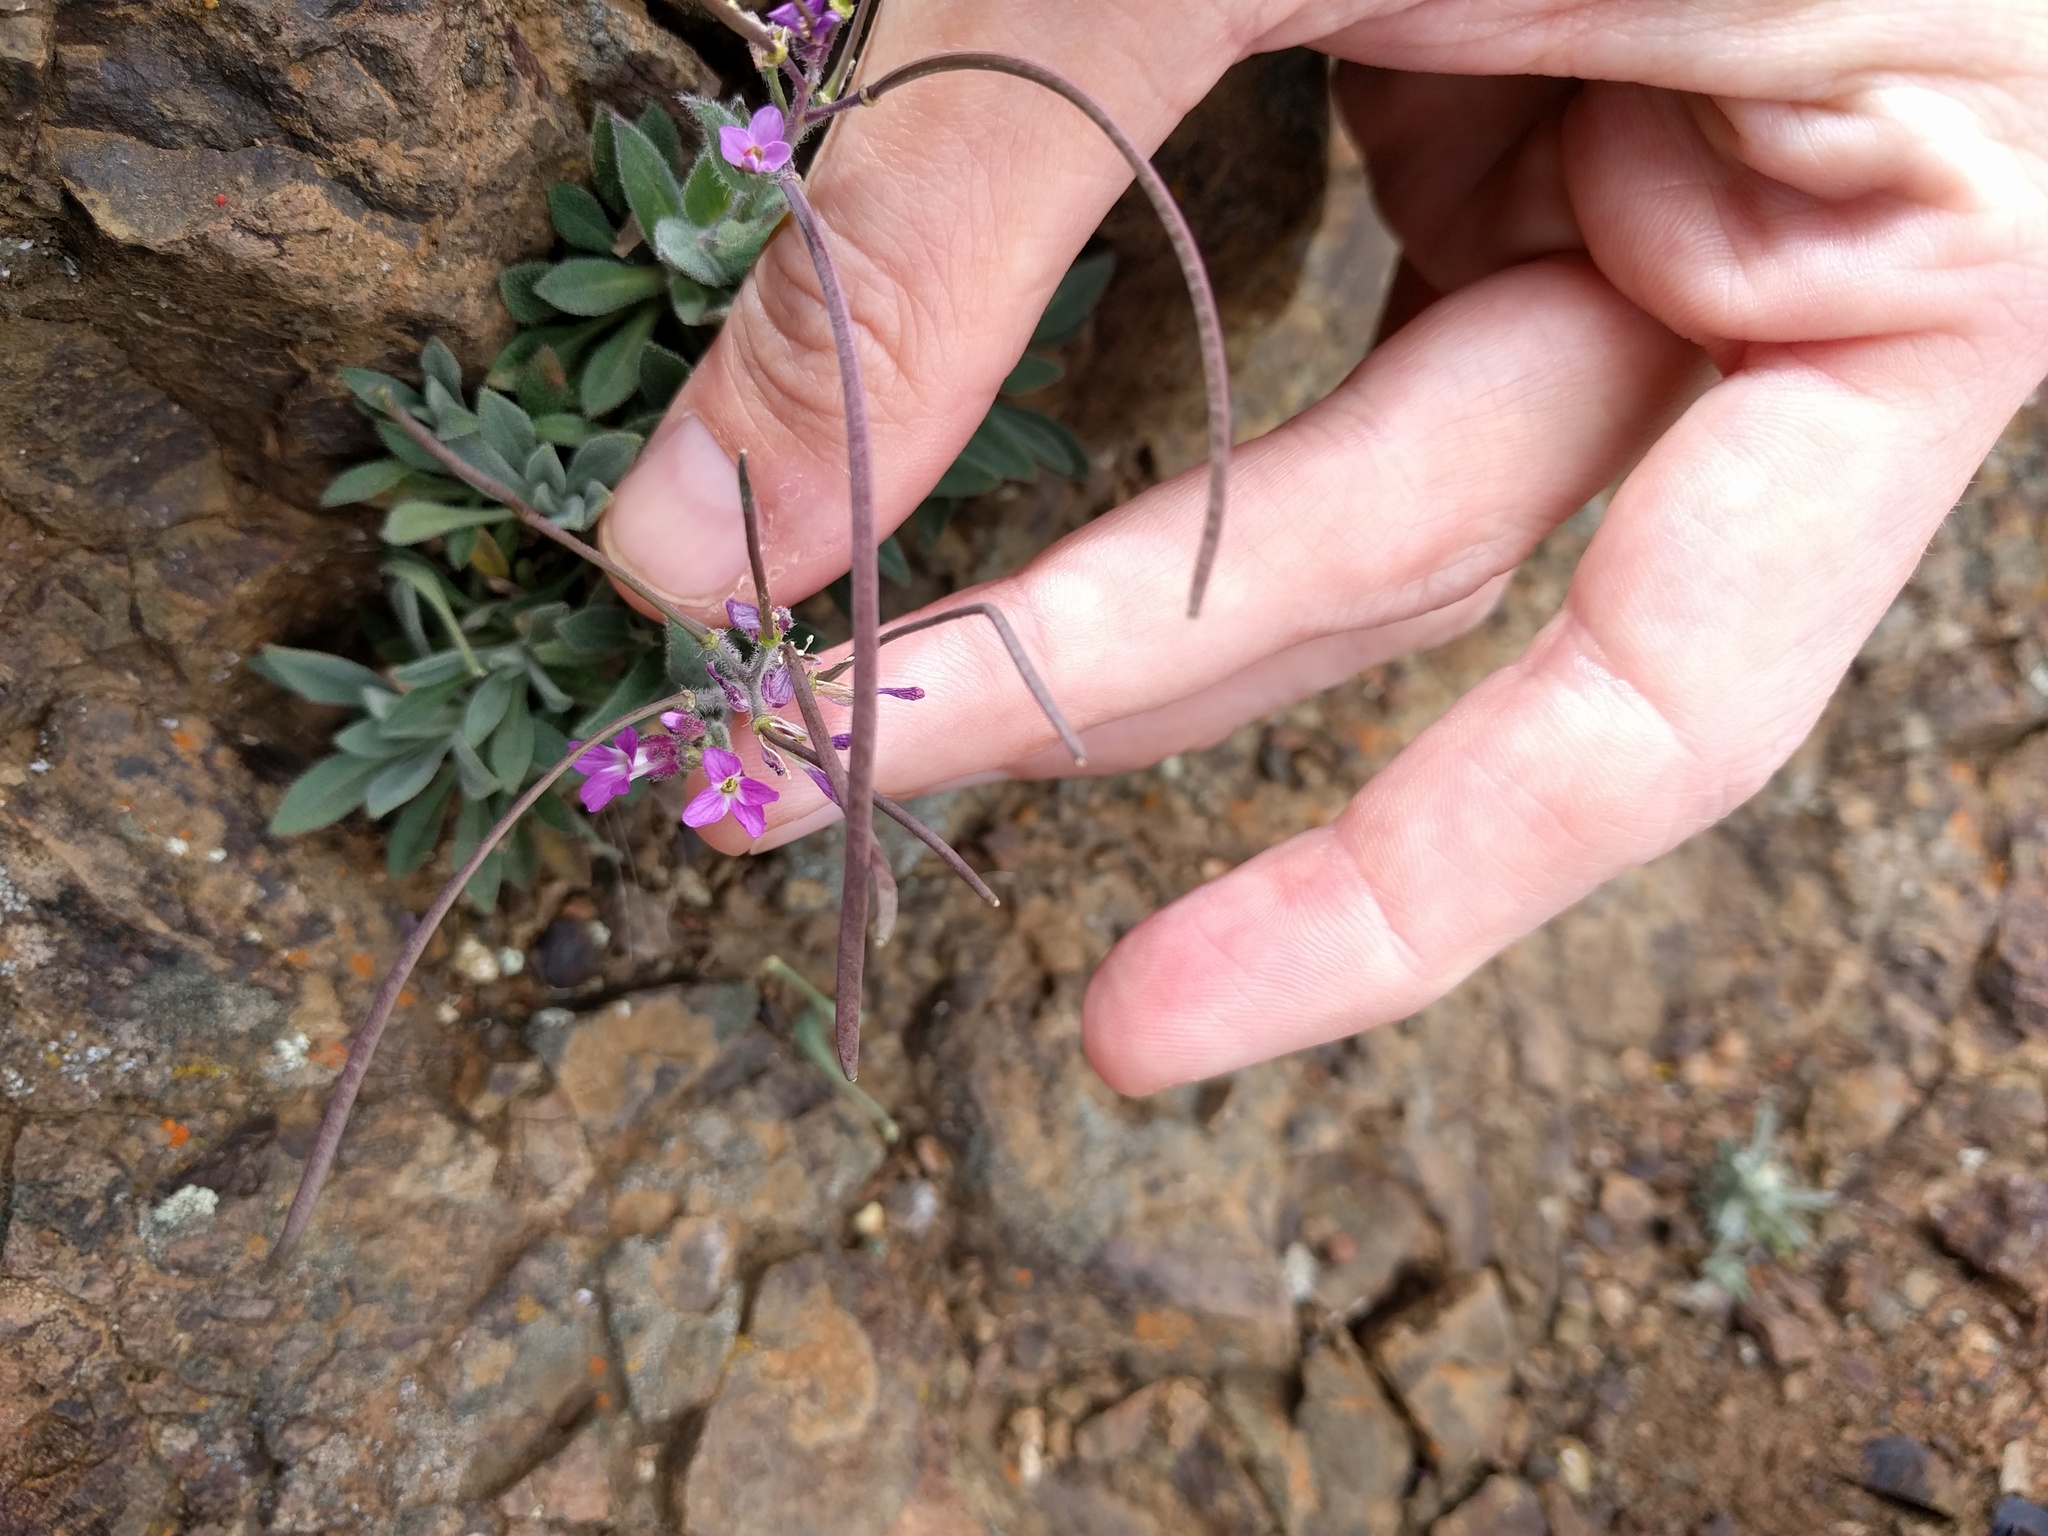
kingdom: Plantae
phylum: Tracheophyta
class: Magnoliopsida
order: Brassicales
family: Brassicaceae
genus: Boechera
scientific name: Boechera breweri
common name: Brewer's rockcress
